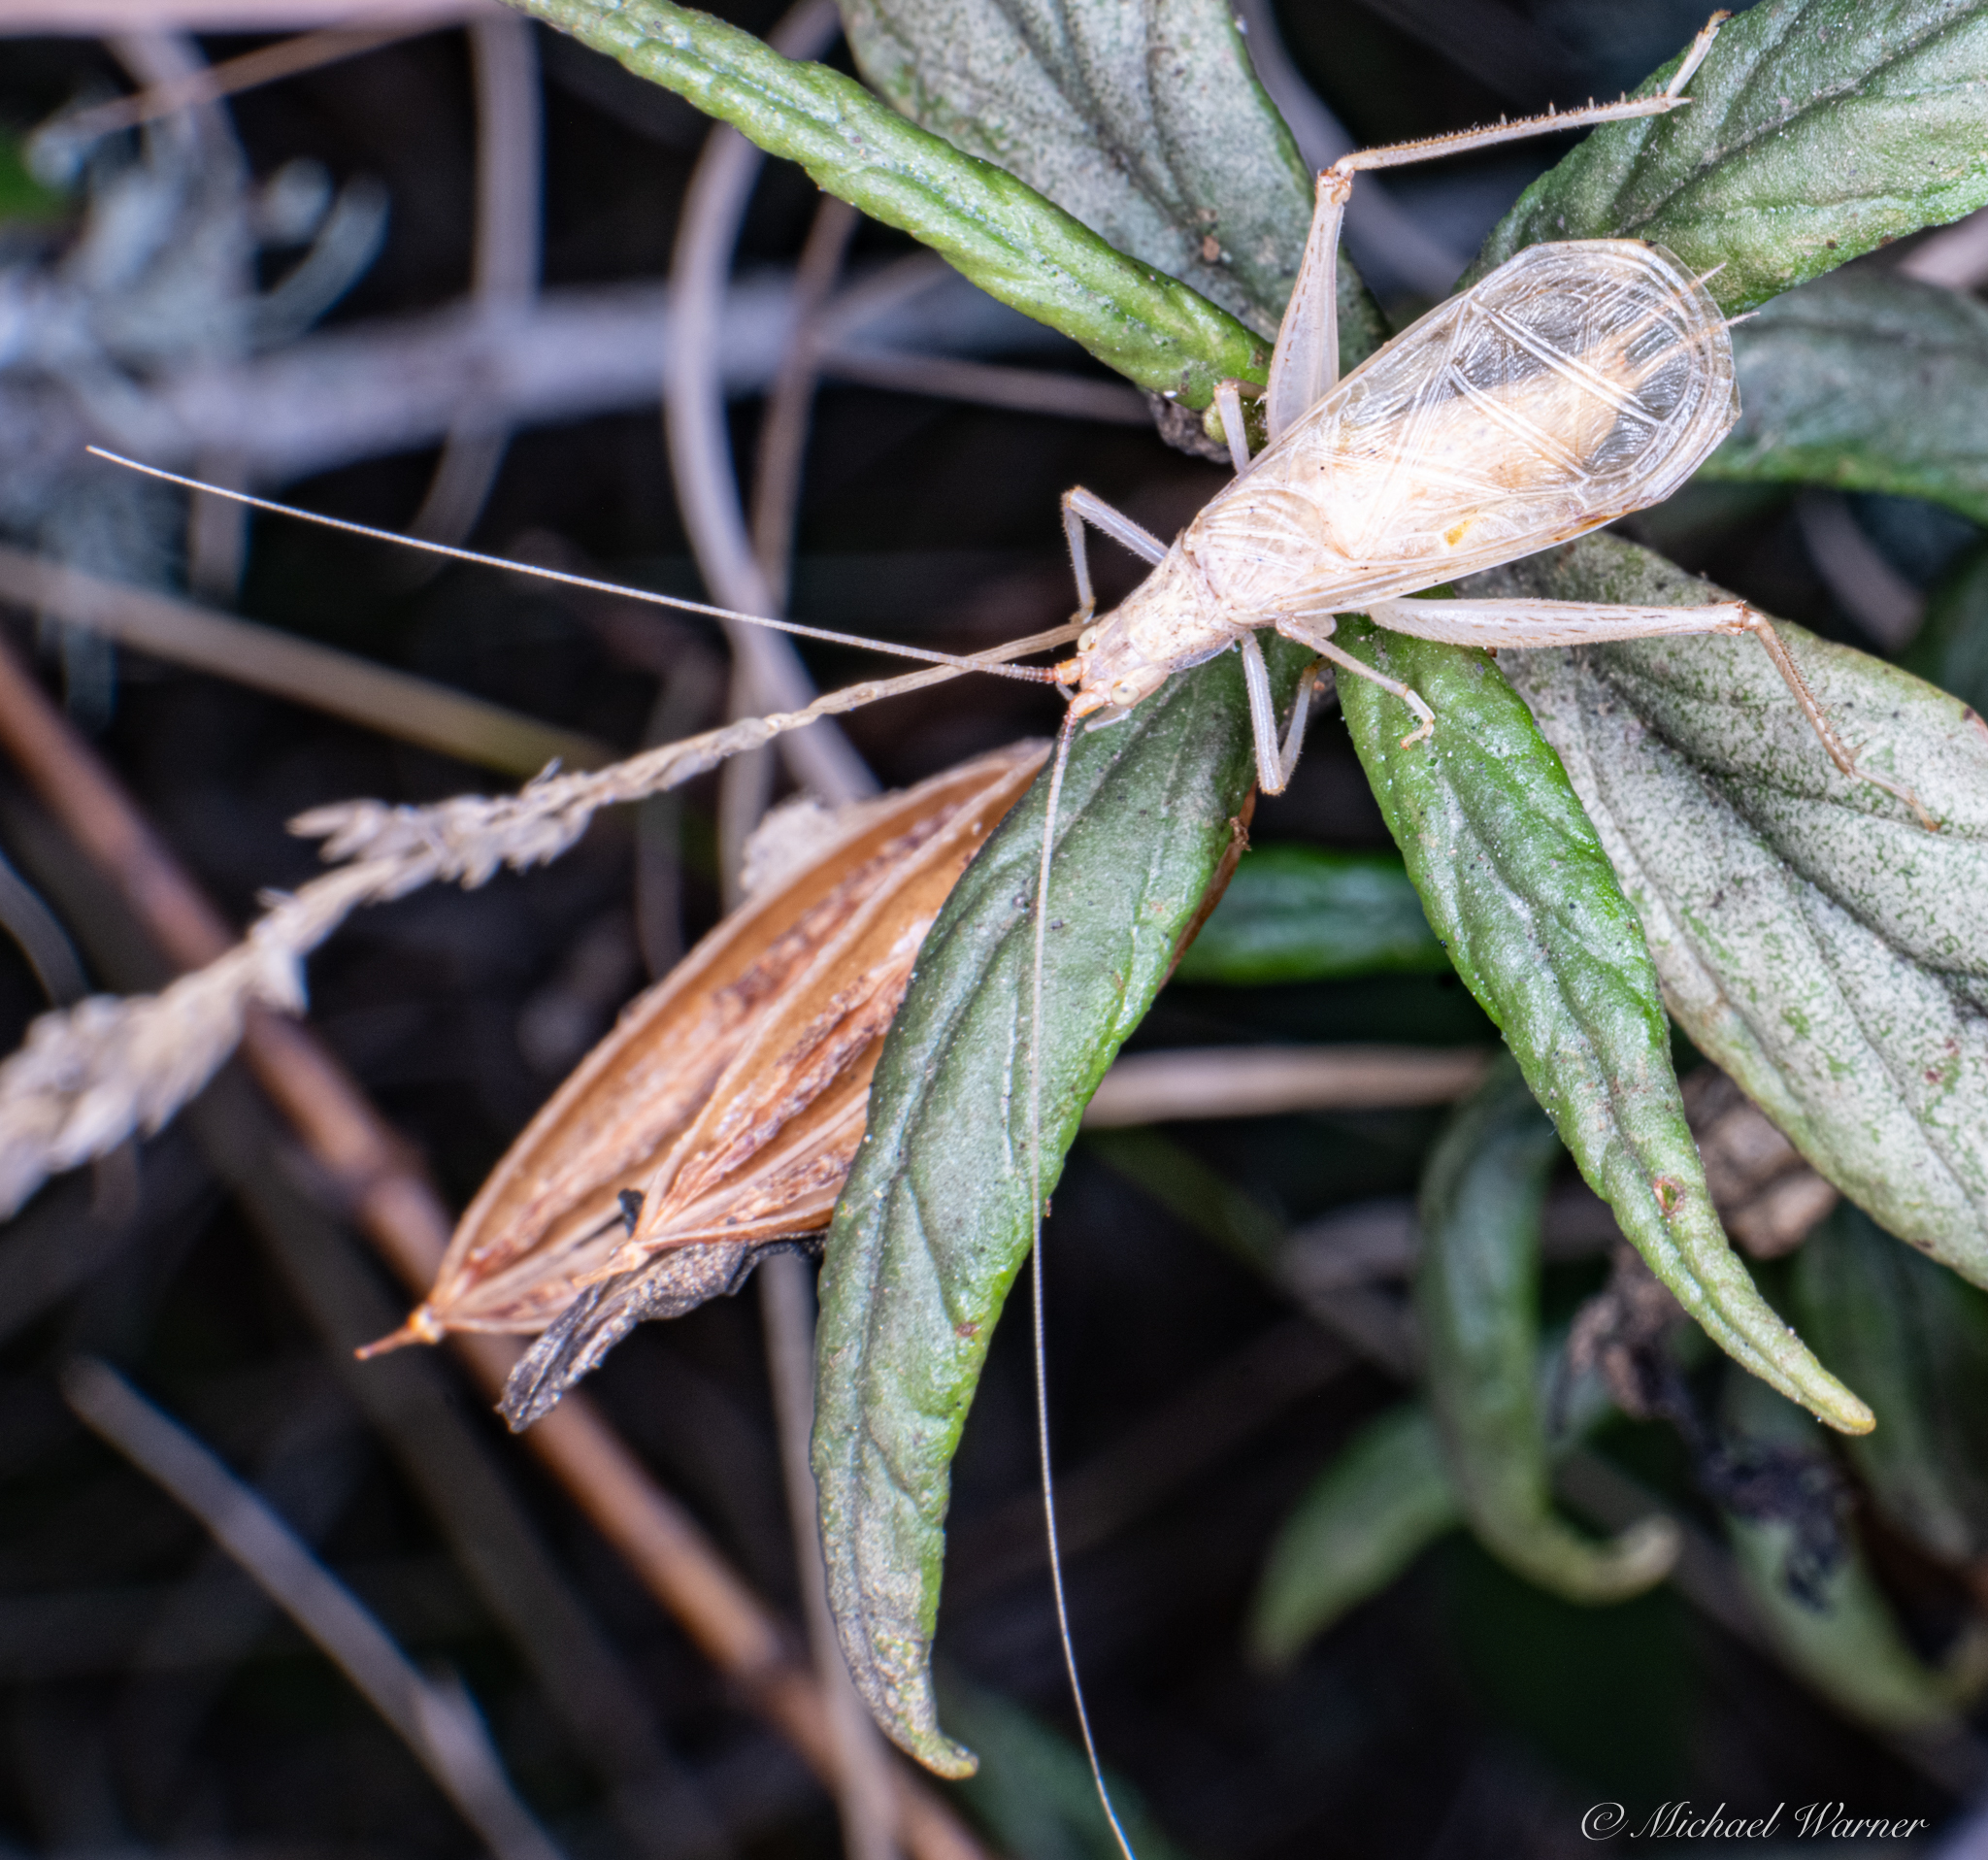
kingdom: Animalia
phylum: Arthropoda
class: Insecta
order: Orthoptera
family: Gryllidae
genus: Oecanthus
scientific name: Oecanthus californicus
